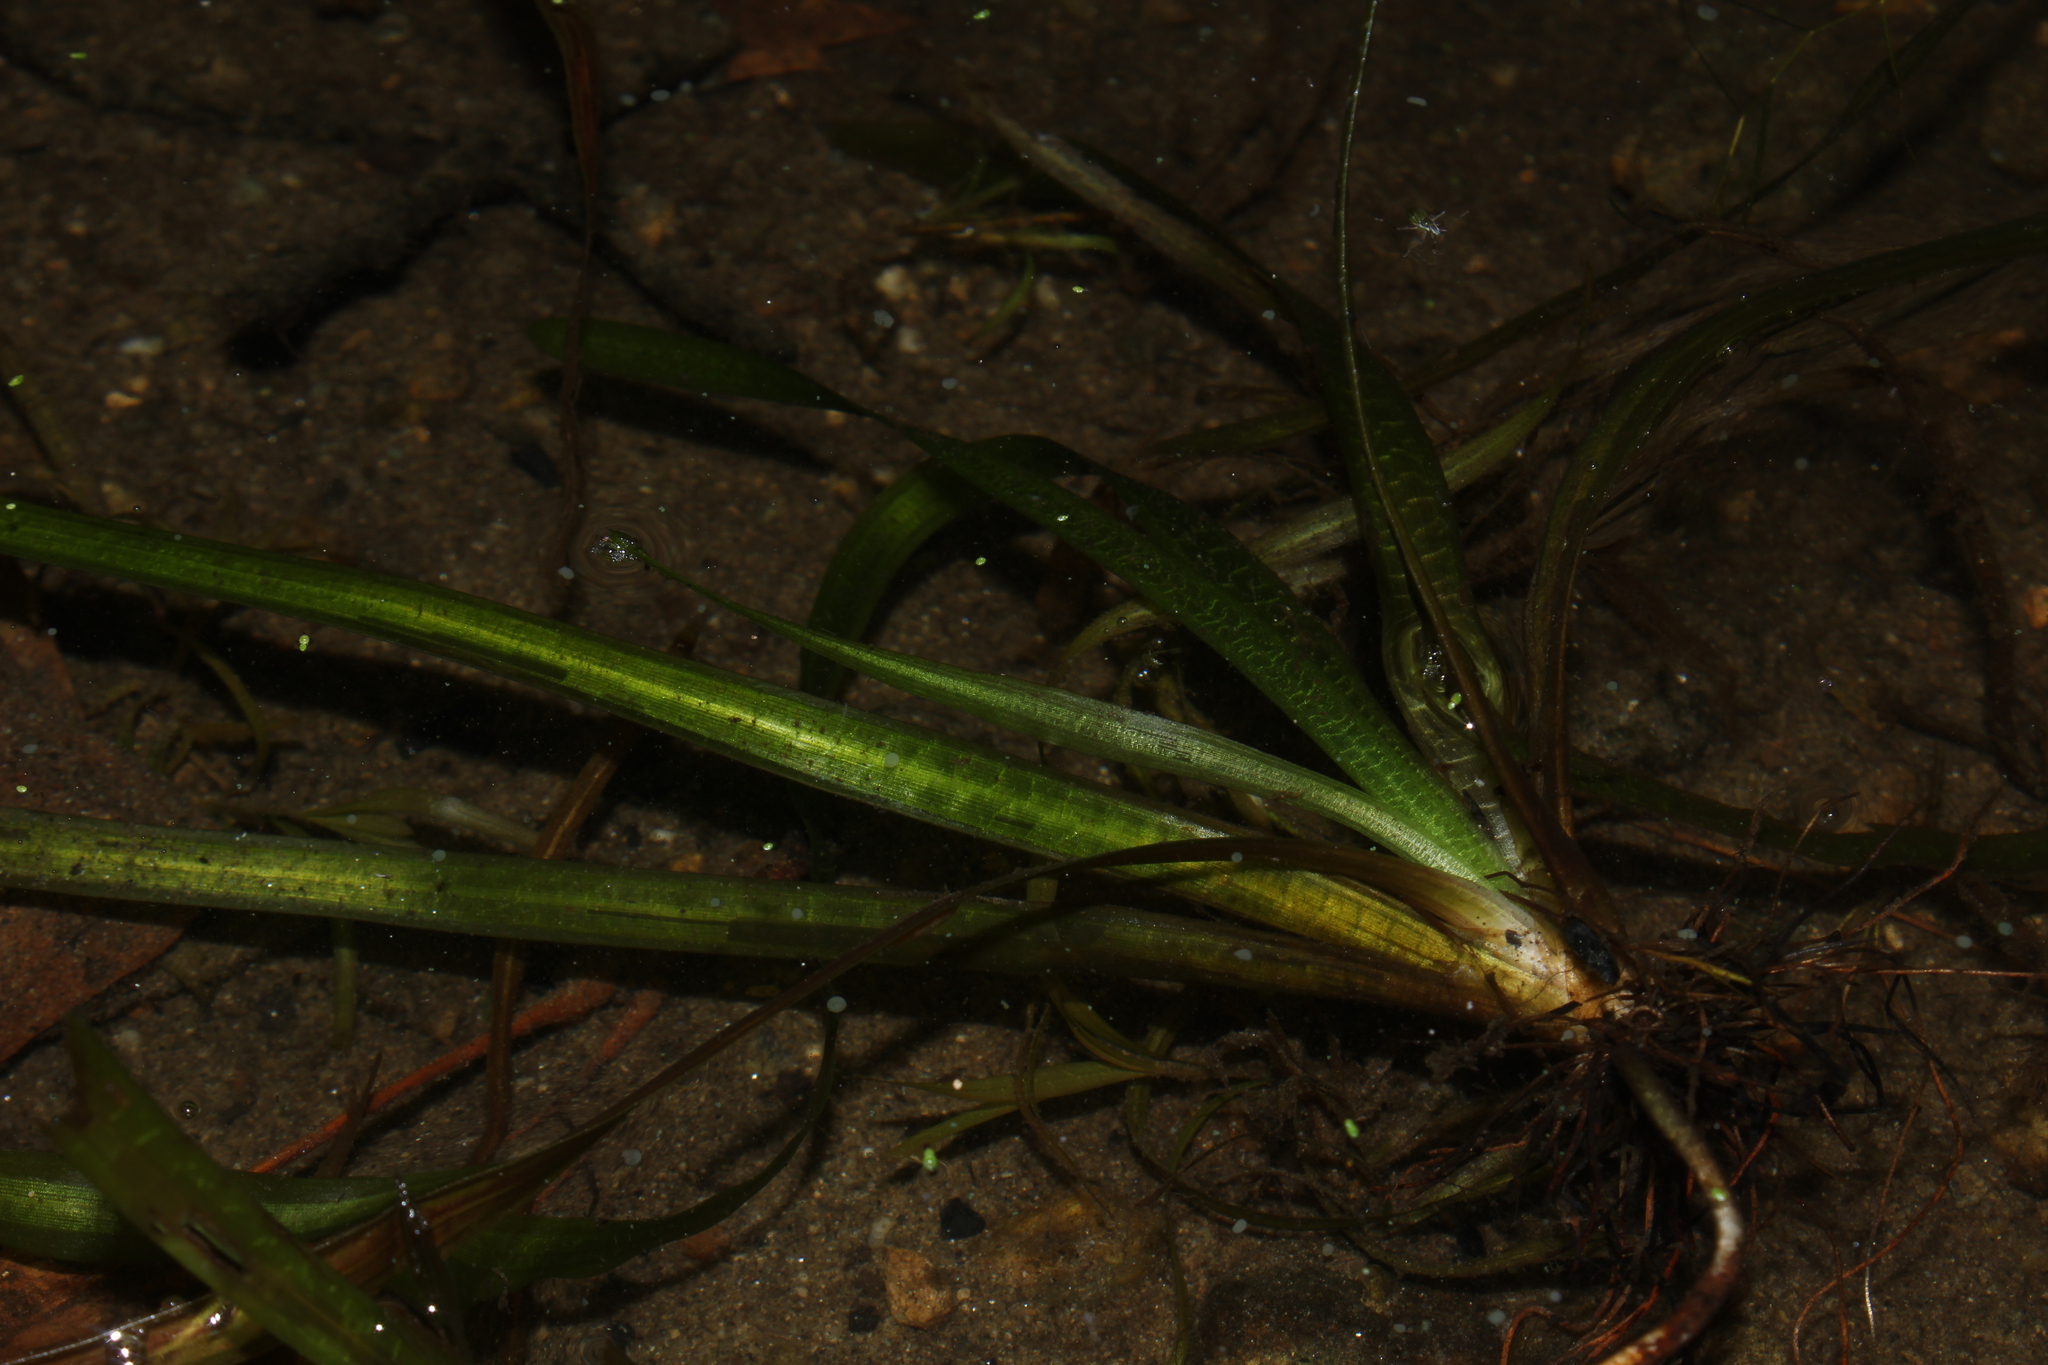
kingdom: Plantae
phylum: Tracheophyta
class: Liliopsida
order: Alismatales
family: Hydrocharitaceae
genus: Vallisneria
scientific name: Vallisneria americana
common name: American eelgrass
